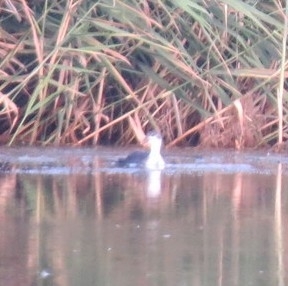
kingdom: Animalia
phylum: Chordata
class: Aves
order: Gruiformes
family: Rallidae
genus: Fulica
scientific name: Fulica atra
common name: Eurasian coot
